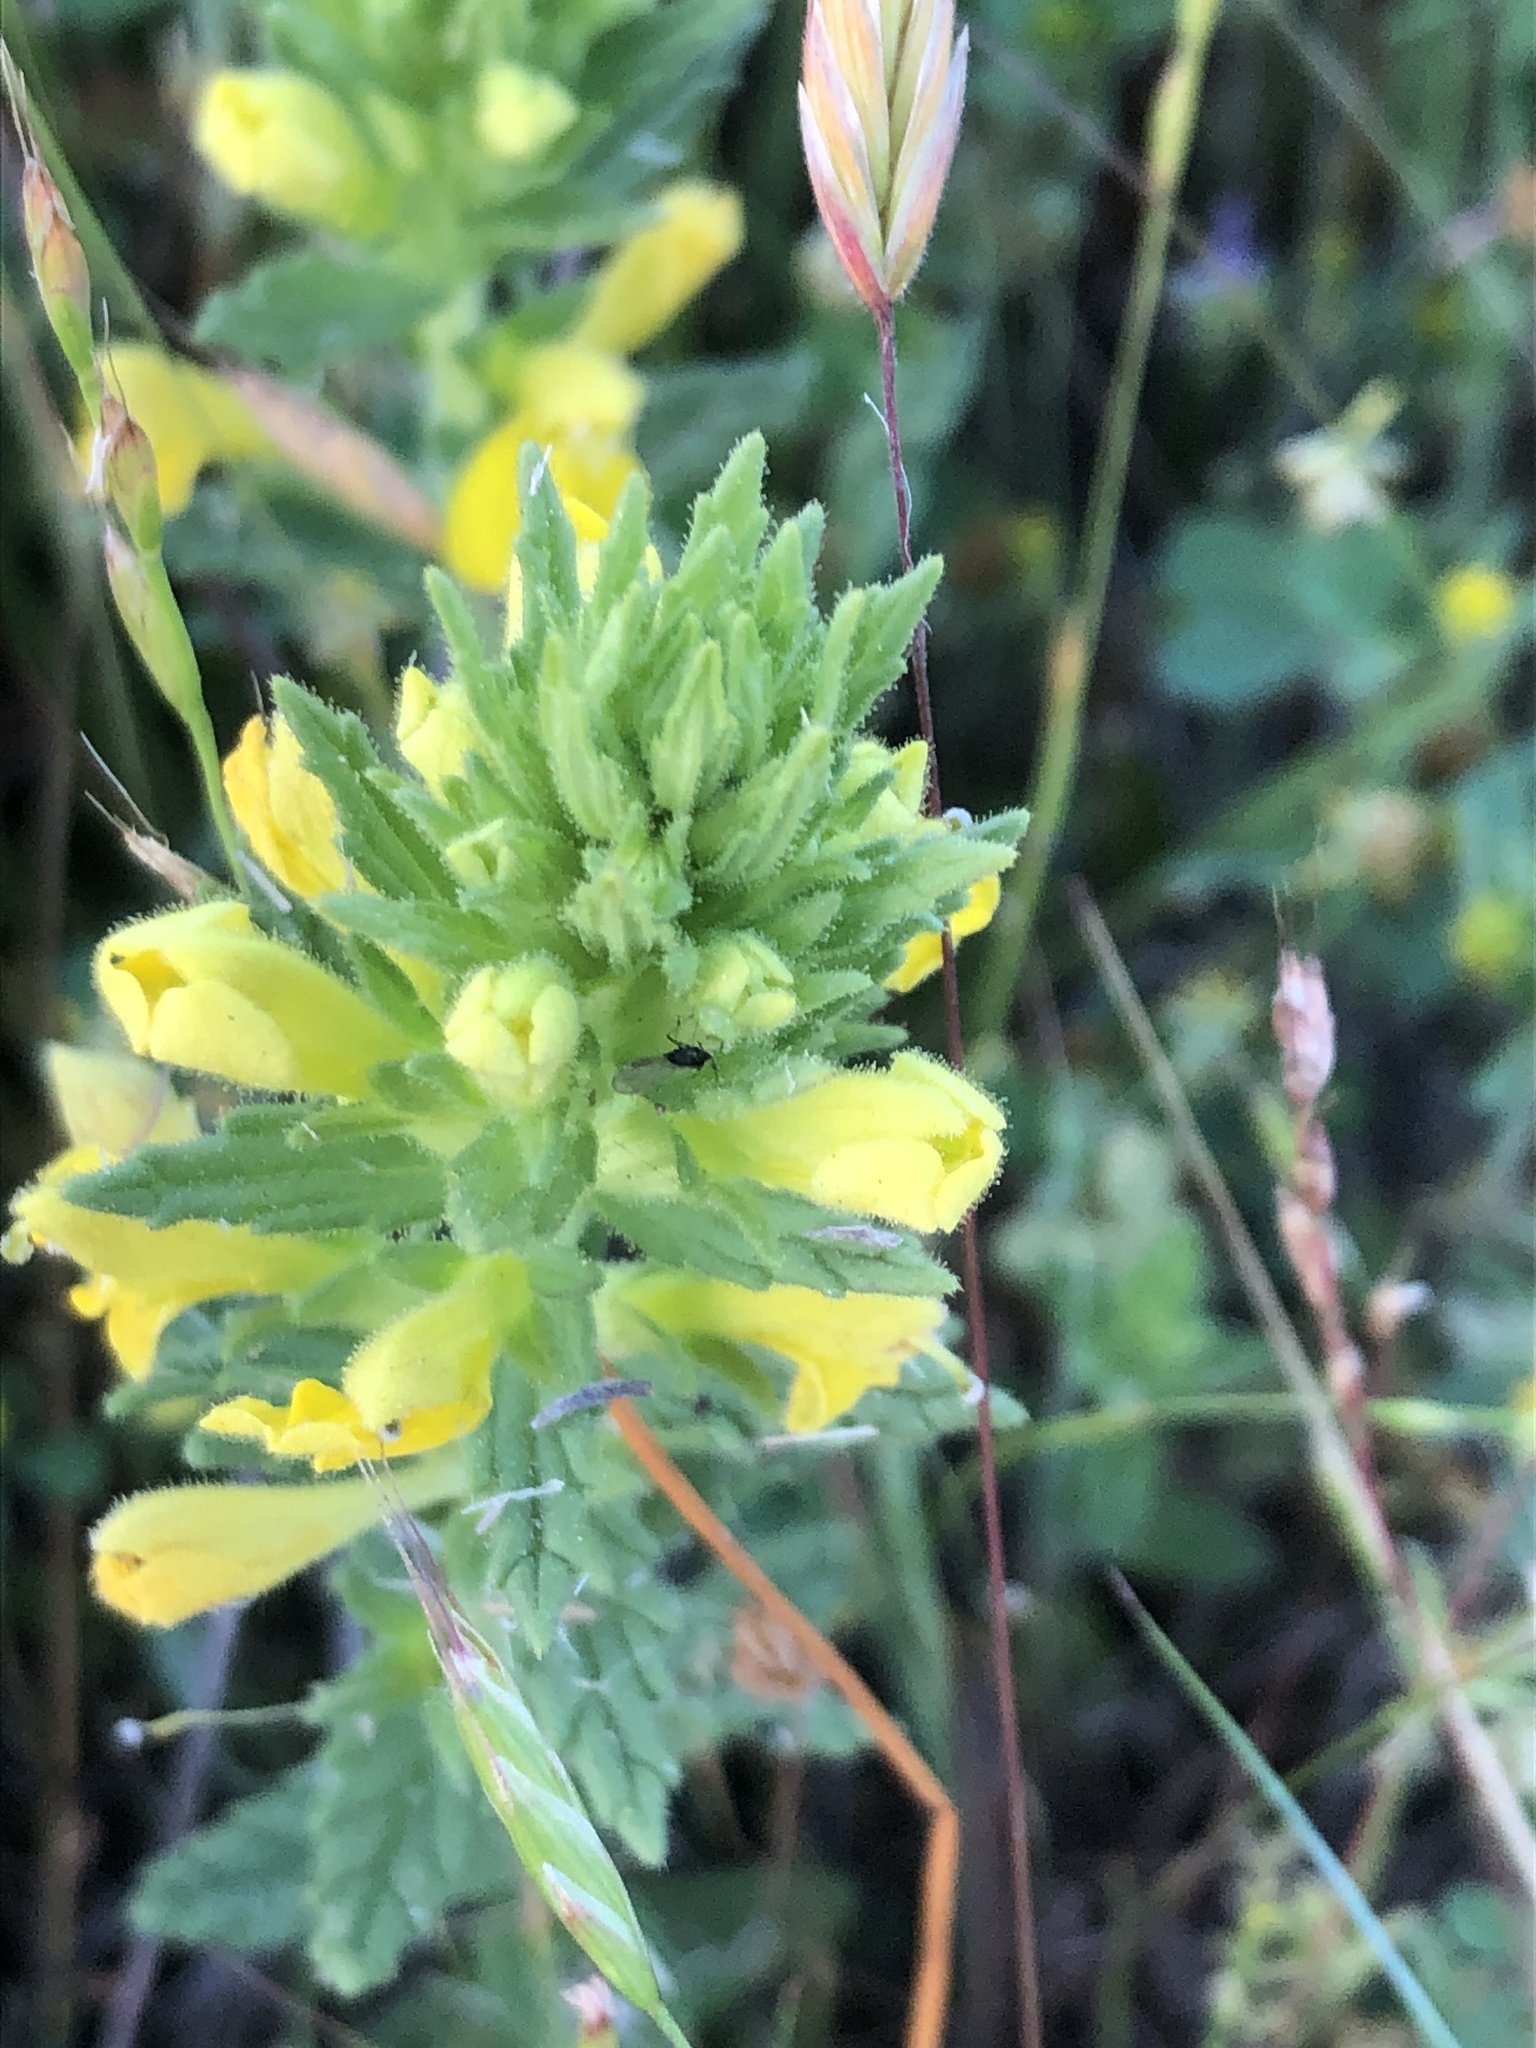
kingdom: Plantae
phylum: Tracheophyta
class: Magnoliopsida
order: Lamiales
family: Orobanchaceae
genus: Bellardia
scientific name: Bellardia viscosa
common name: Sticky parentucellia
